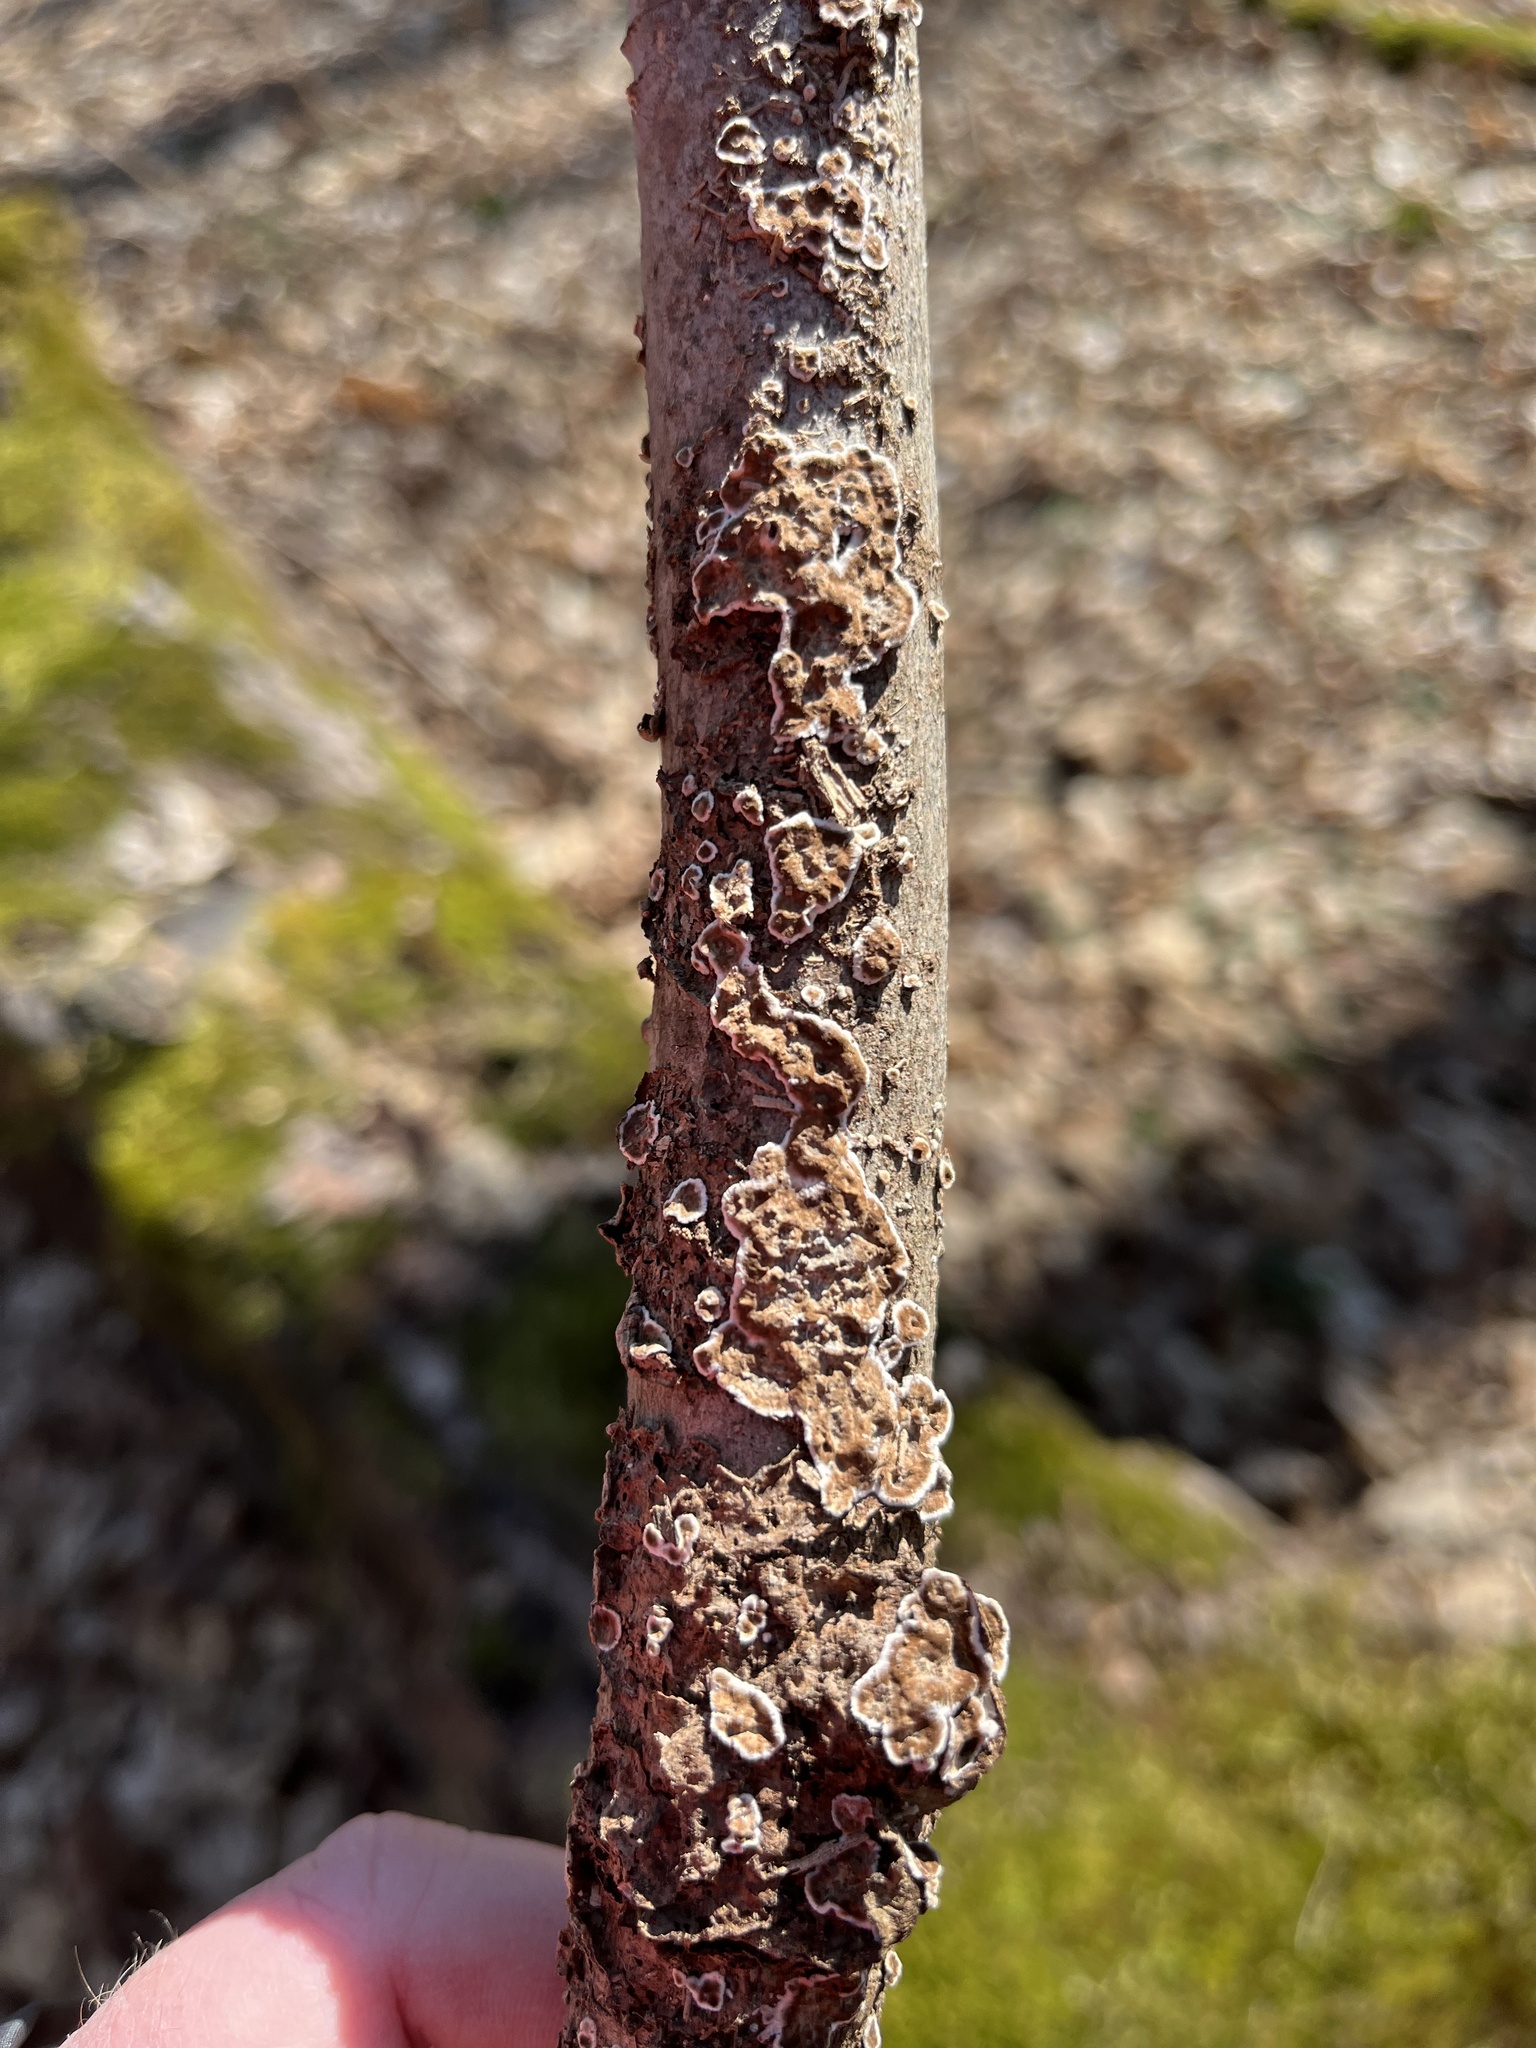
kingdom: Fungi
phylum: Basidiomycota
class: Agaricomycetes
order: Russulales
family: Peniophoraceae
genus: Peniophora
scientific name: Peniophora albobadia
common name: Giraffe spots
